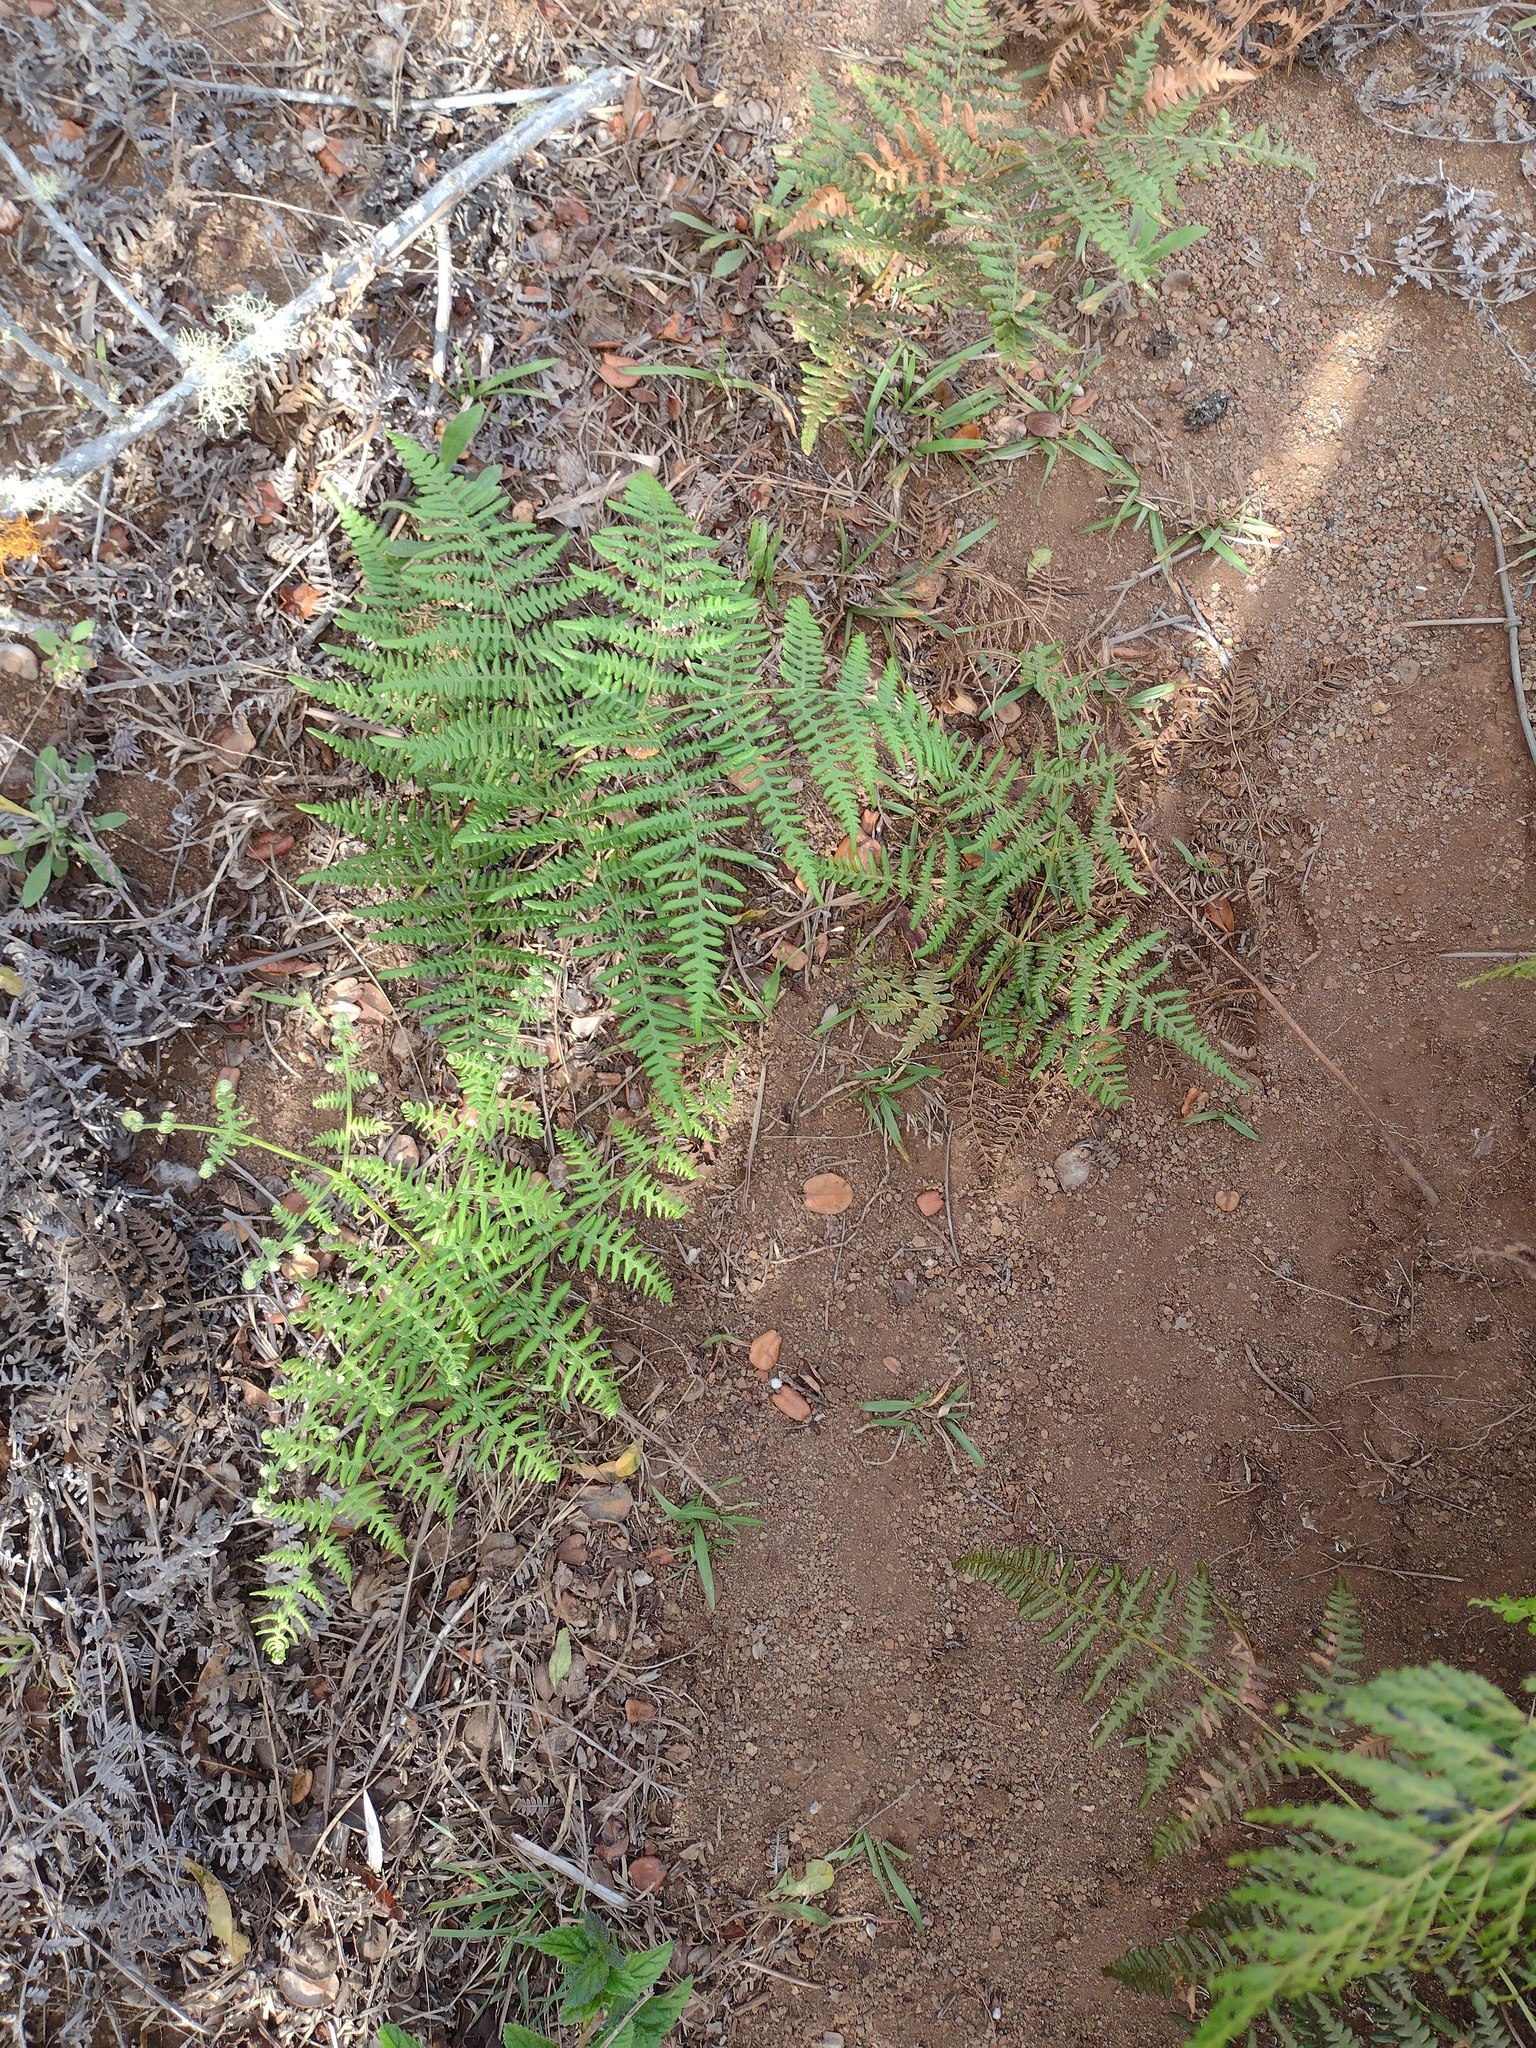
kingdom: Plantae
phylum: Tracheophyta
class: Polypodiopsida
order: Polypodiales
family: Dennstaedtiaceae
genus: Pteridium
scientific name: Pteridium aquilinum
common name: Bracken
